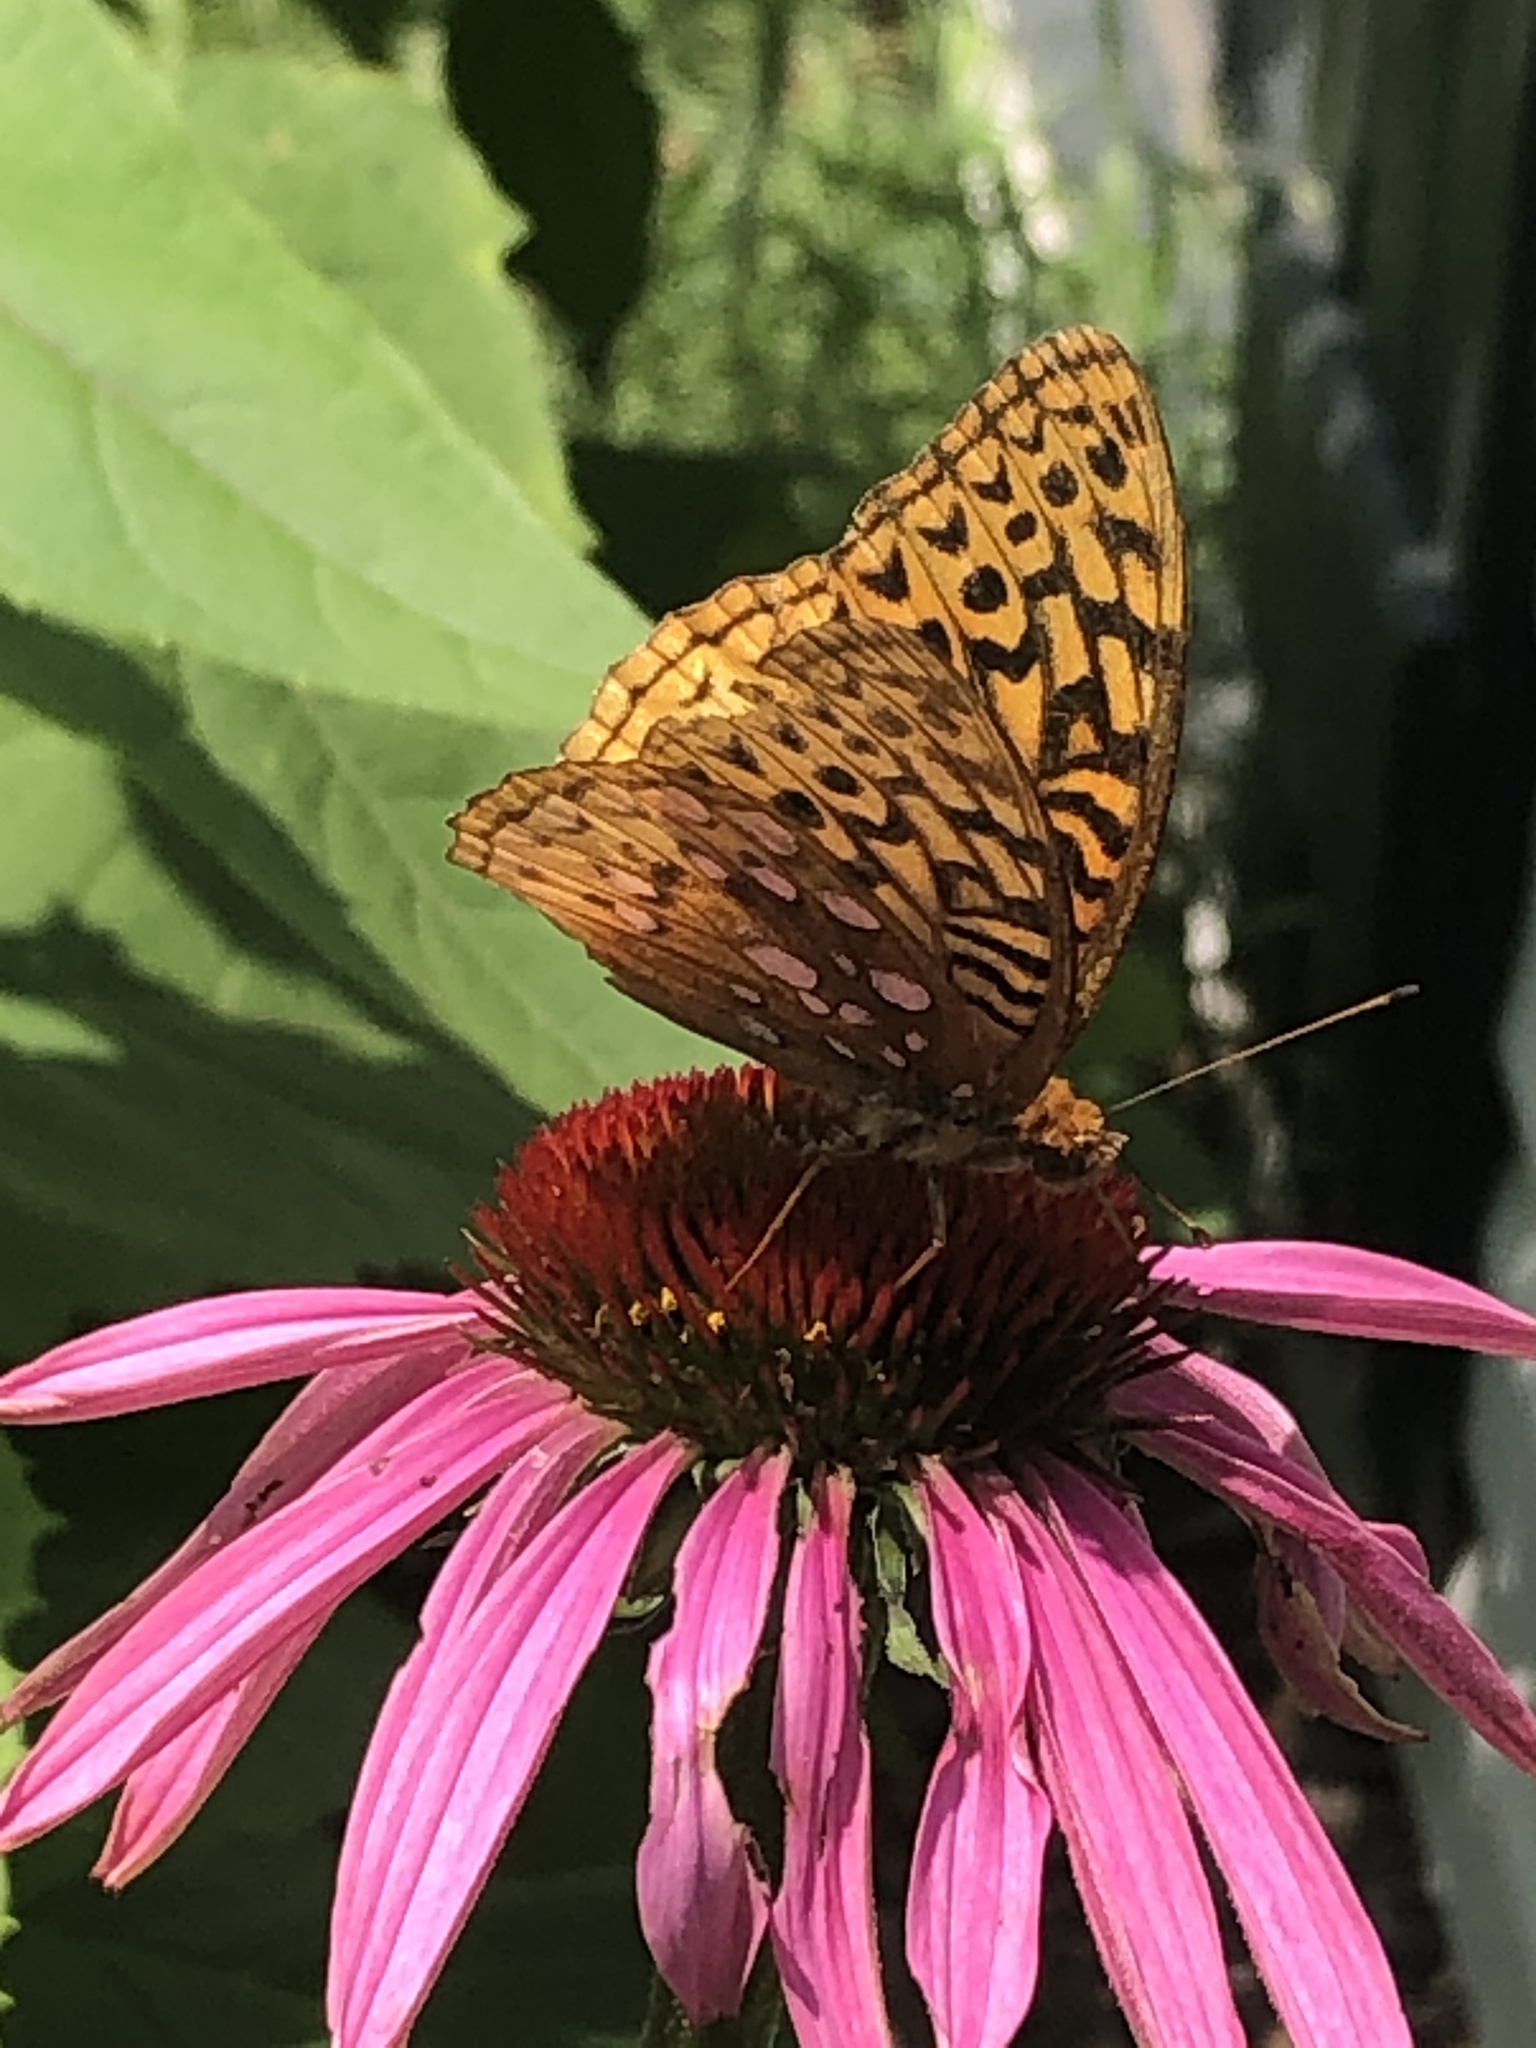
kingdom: Animalia
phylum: Arthropoda
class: Insecta
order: Lepidoptera
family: Nymphalidae
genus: Speyeria
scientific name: Speyeria cybele
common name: Great spangled fritillary
